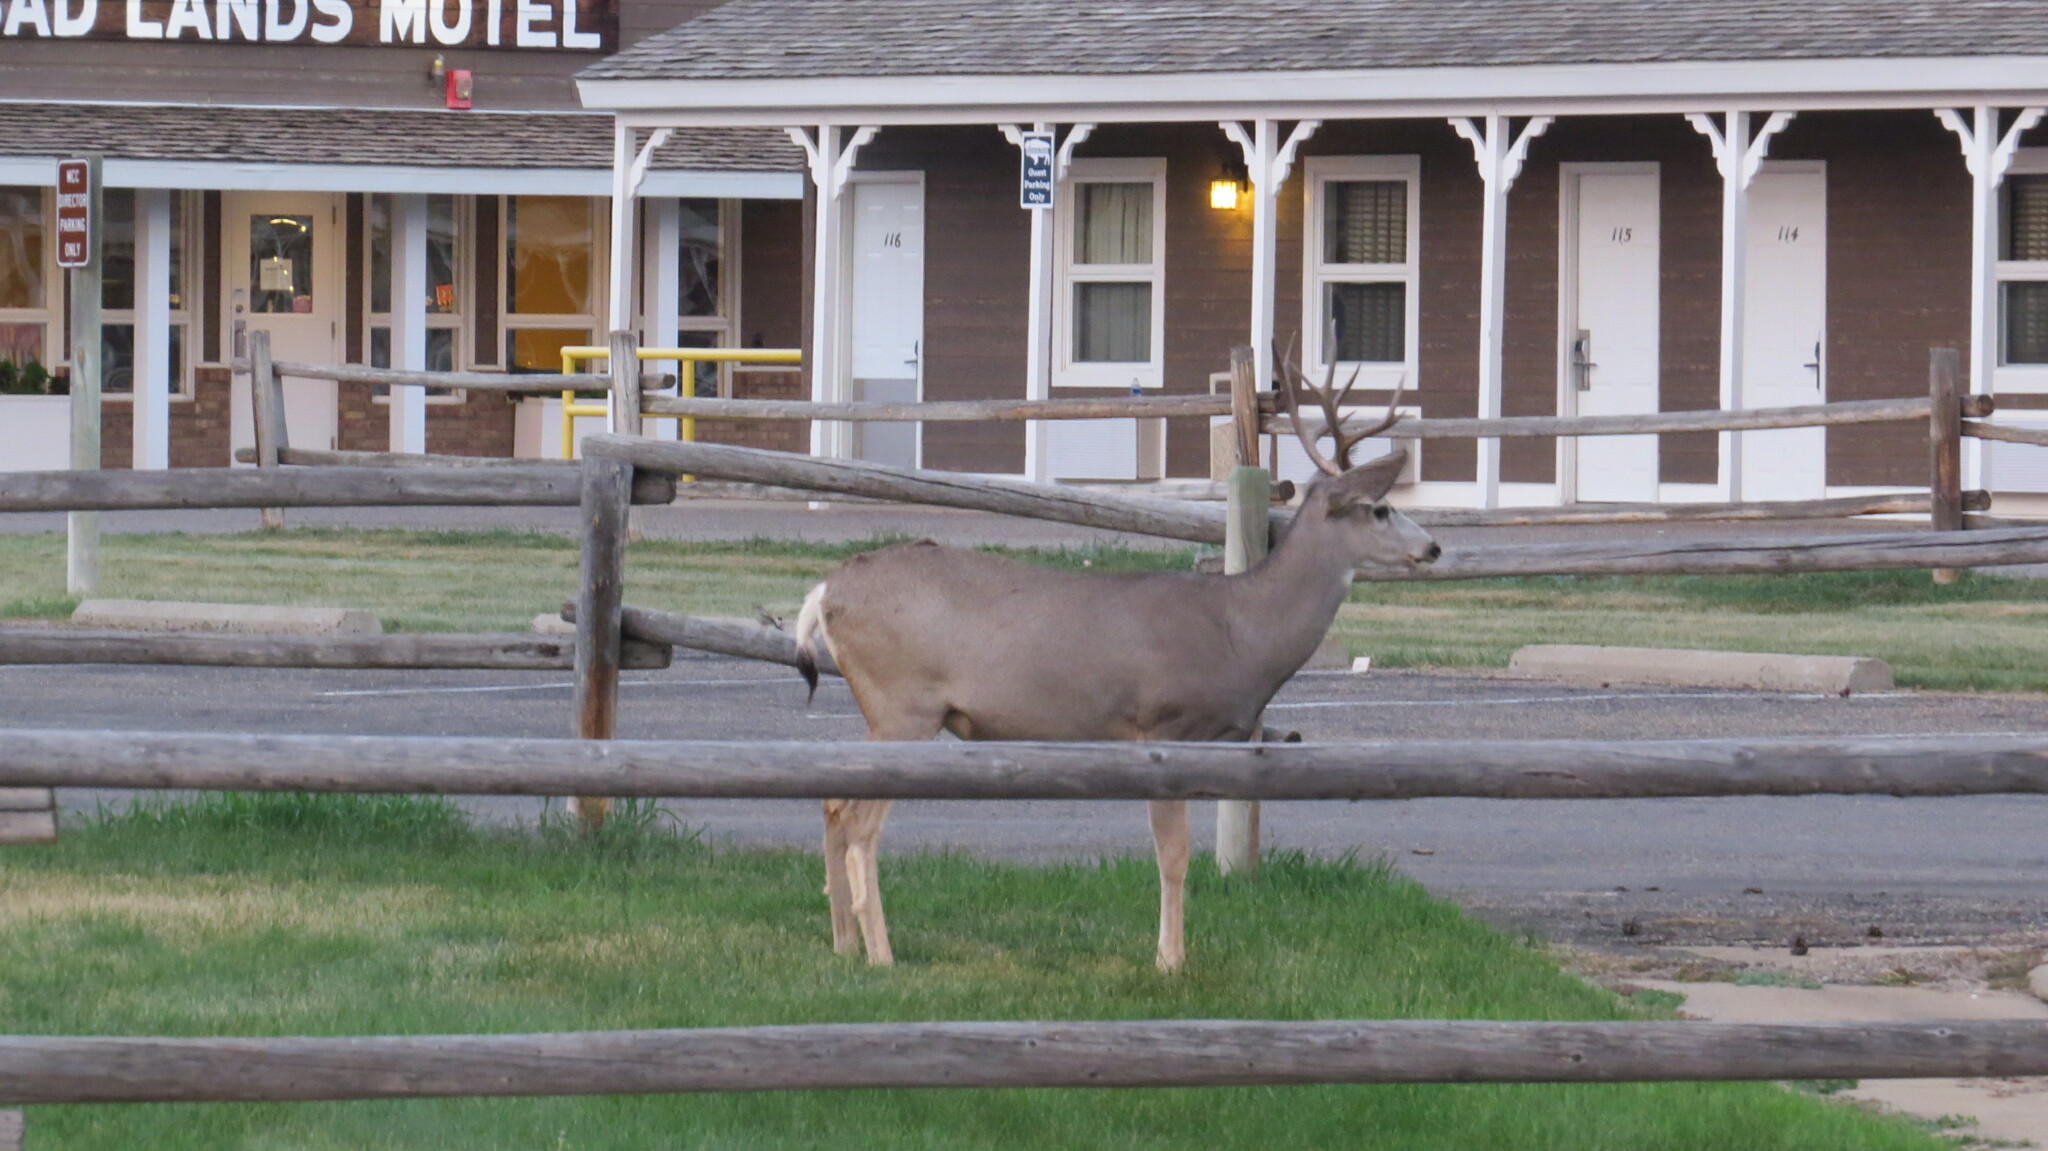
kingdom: Animalia
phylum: Chordata
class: Mammalia
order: Artiodactyla
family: Cervidae
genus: Odocoileus
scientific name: Odocoileus hemionus
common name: Mule deer
